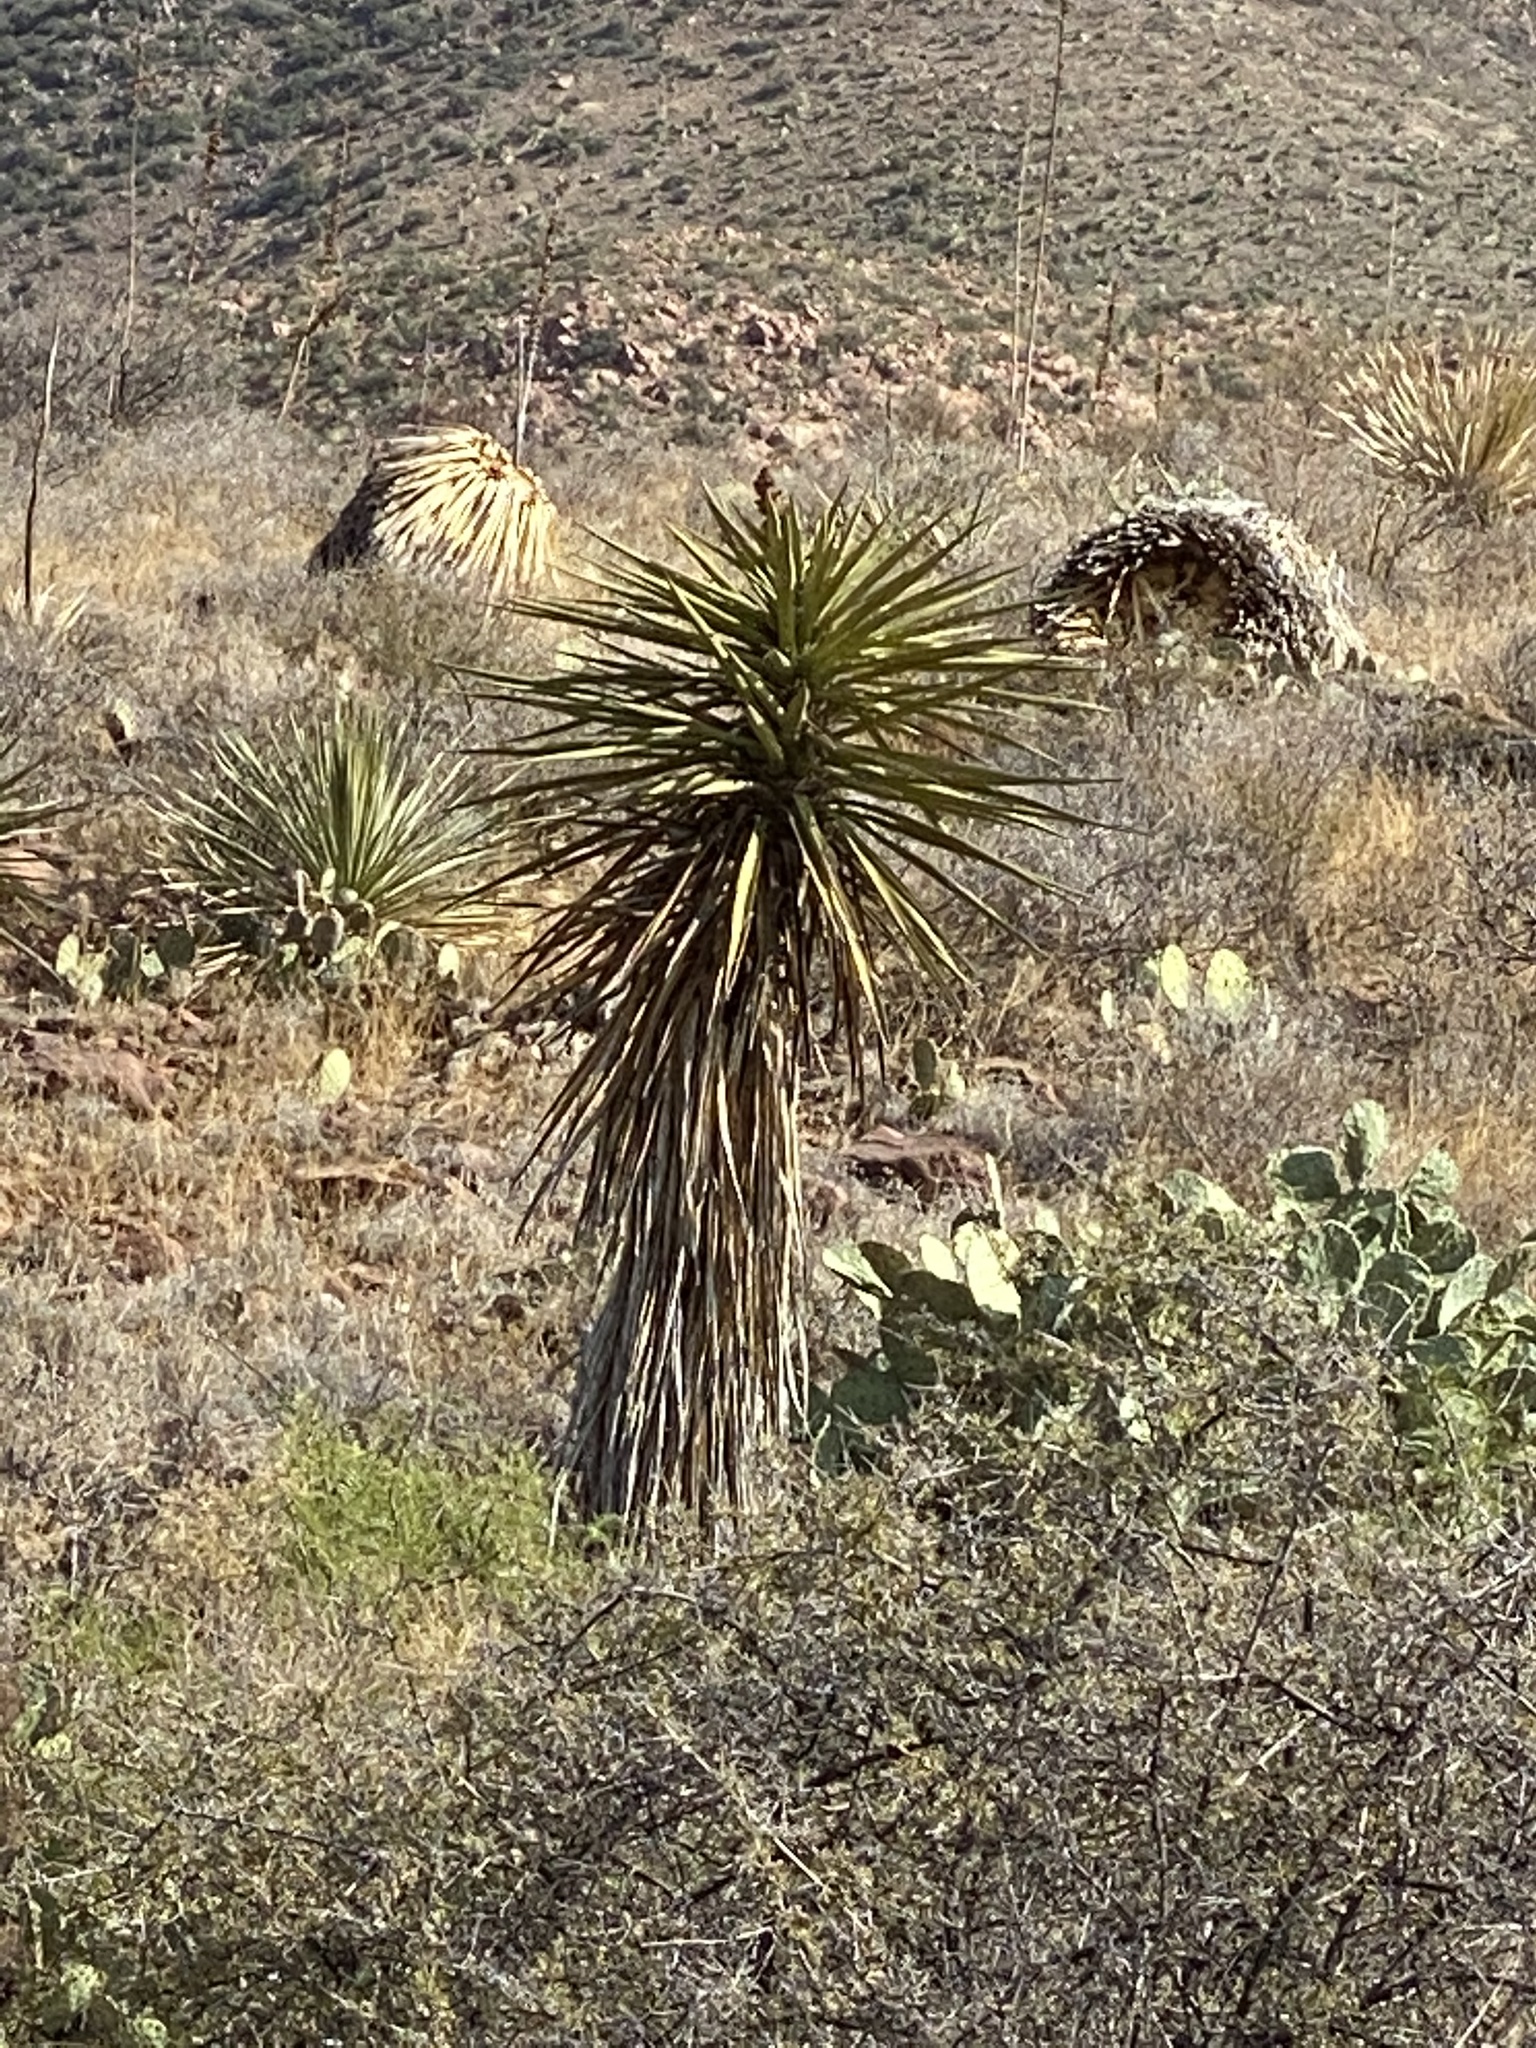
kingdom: Plantae
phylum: Tracheophyta
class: Liliopsida
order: Asparagales
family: Asparagaceae
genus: Yucca
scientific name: Yucca treculiana
